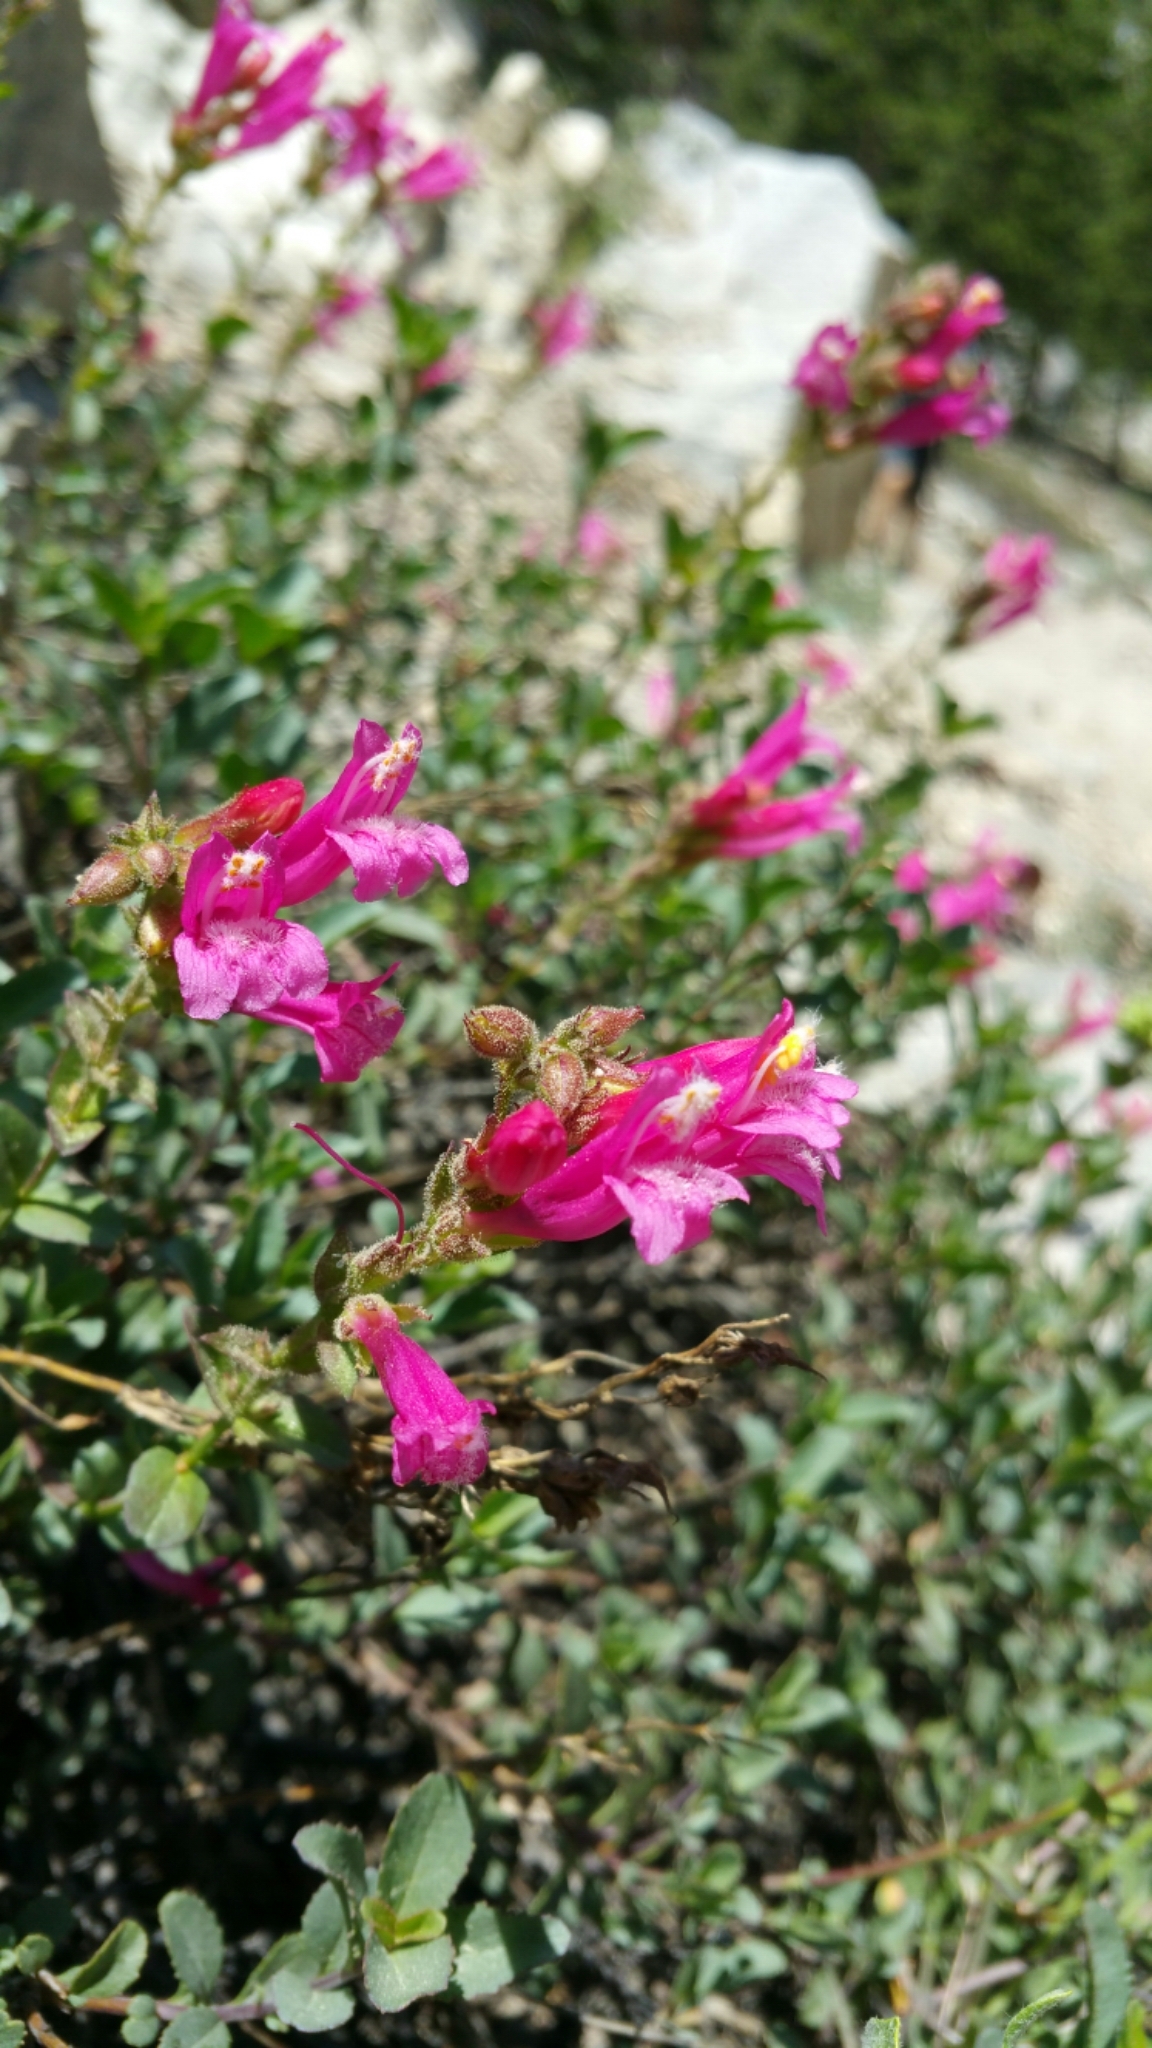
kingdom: Plantae
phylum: Tracheophyta
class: Magnoliopsida
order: Lamiales
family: Plantaginaceae
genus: Penstemon
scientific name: Penstemon newberryi
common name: Mountain-pride
